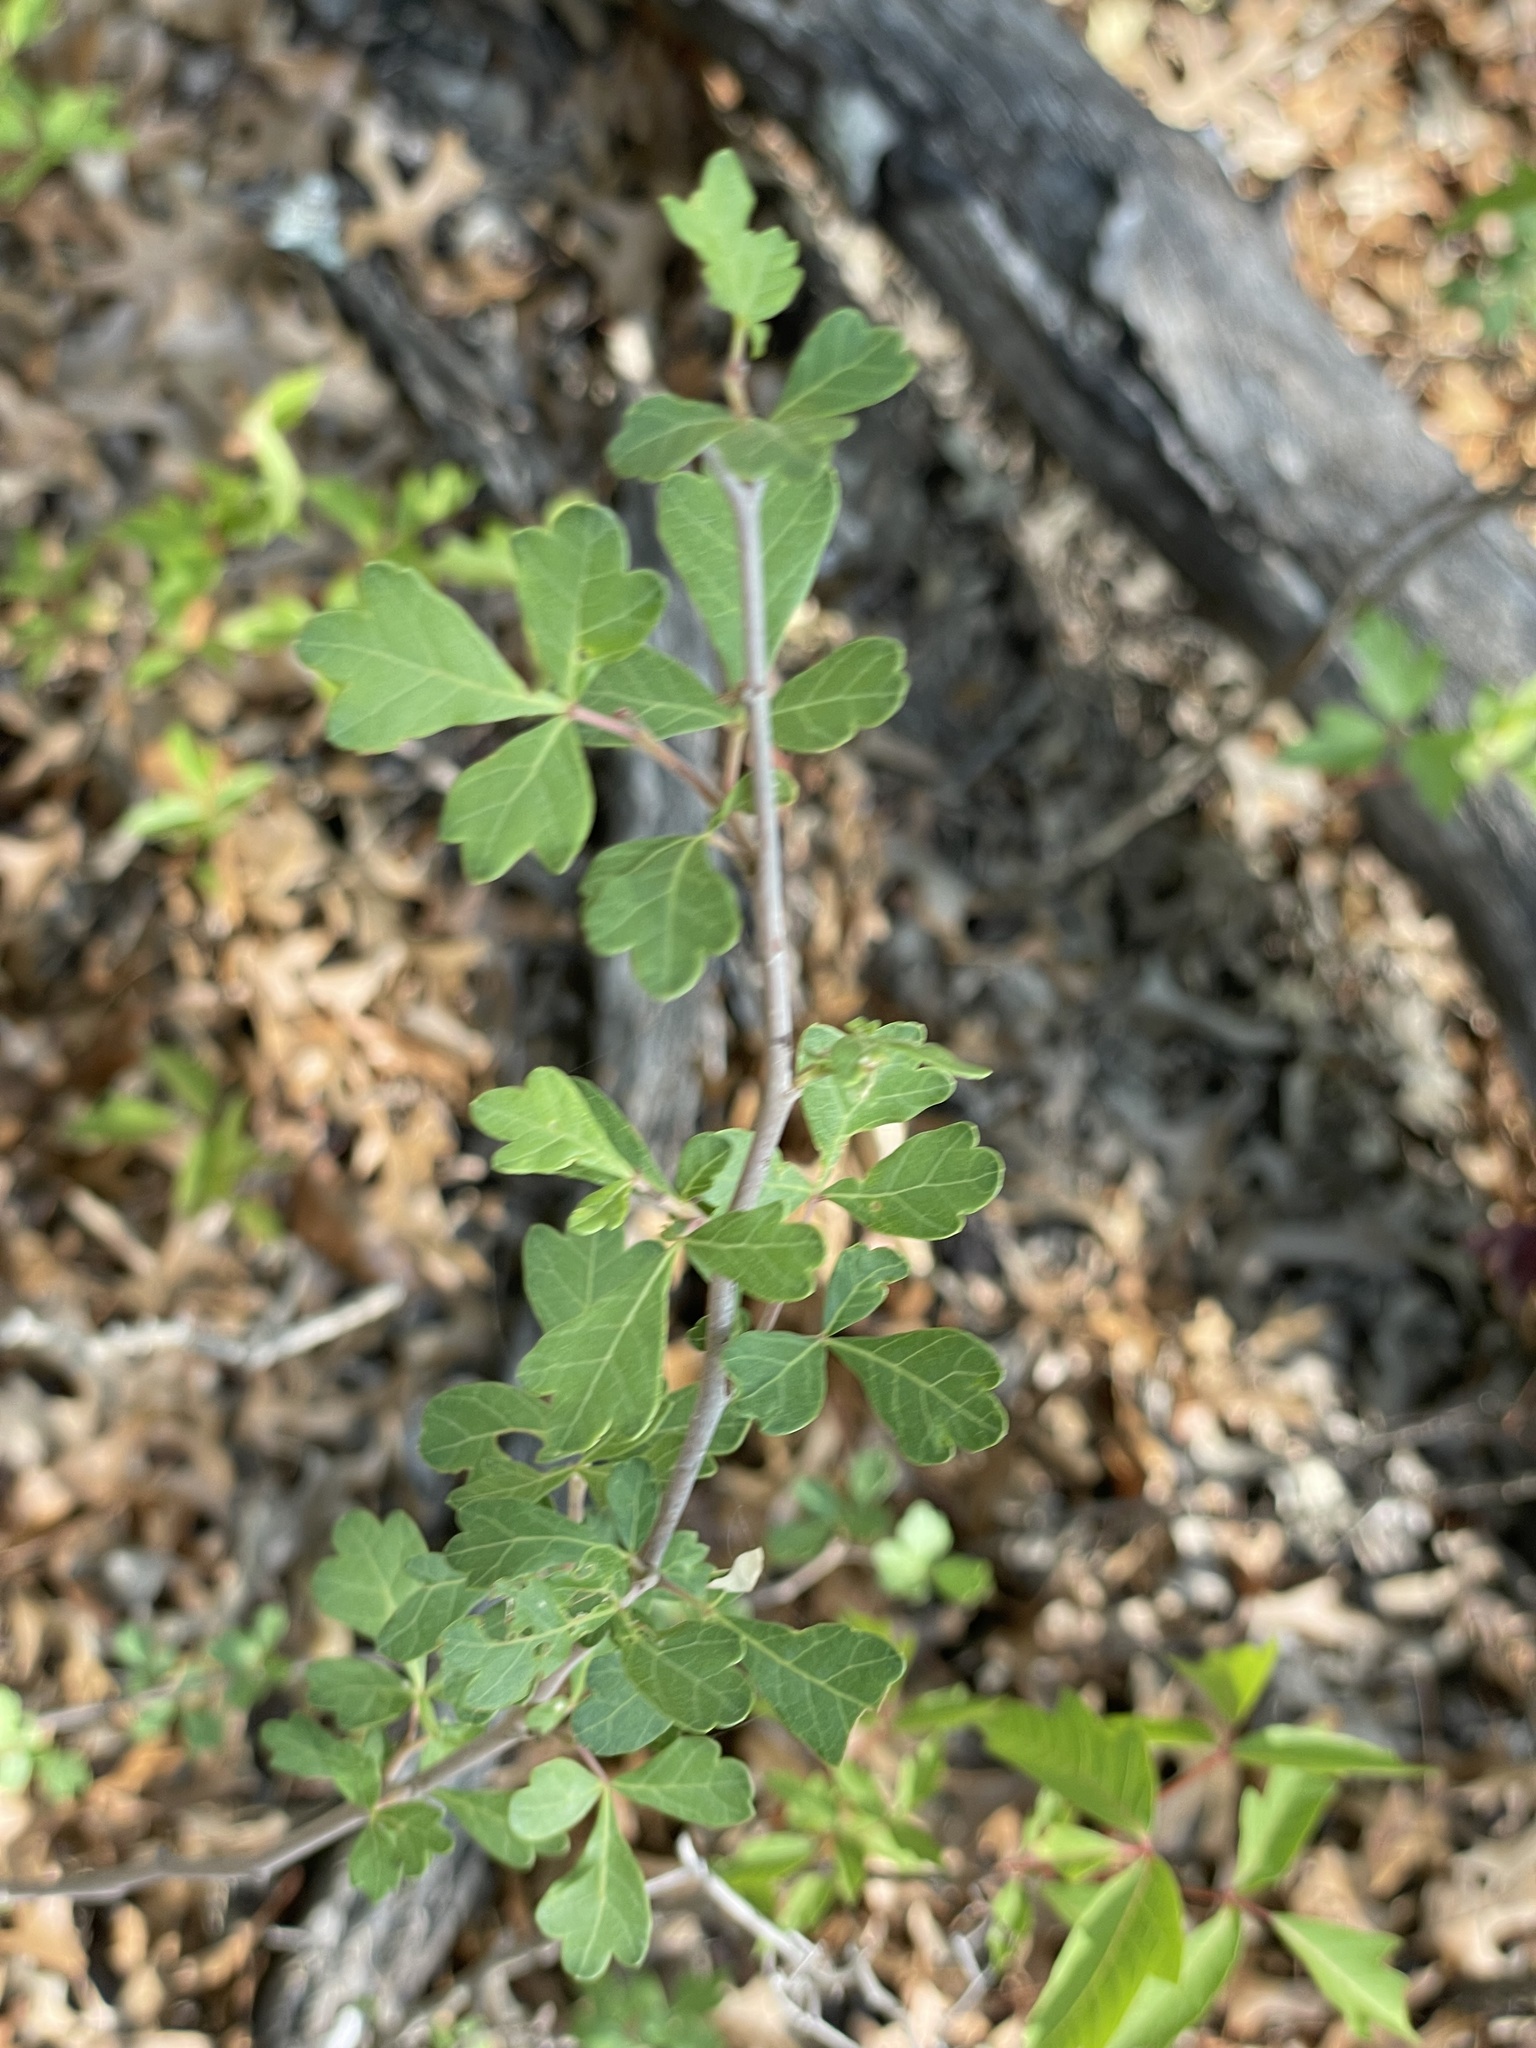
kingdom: Plantae
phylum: Tracheophyta
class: Magnoliopsida
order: Sapindales
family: Anacardiaceae
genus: Rhus
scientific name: Rhus aromatica
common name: Aromatic sumac
